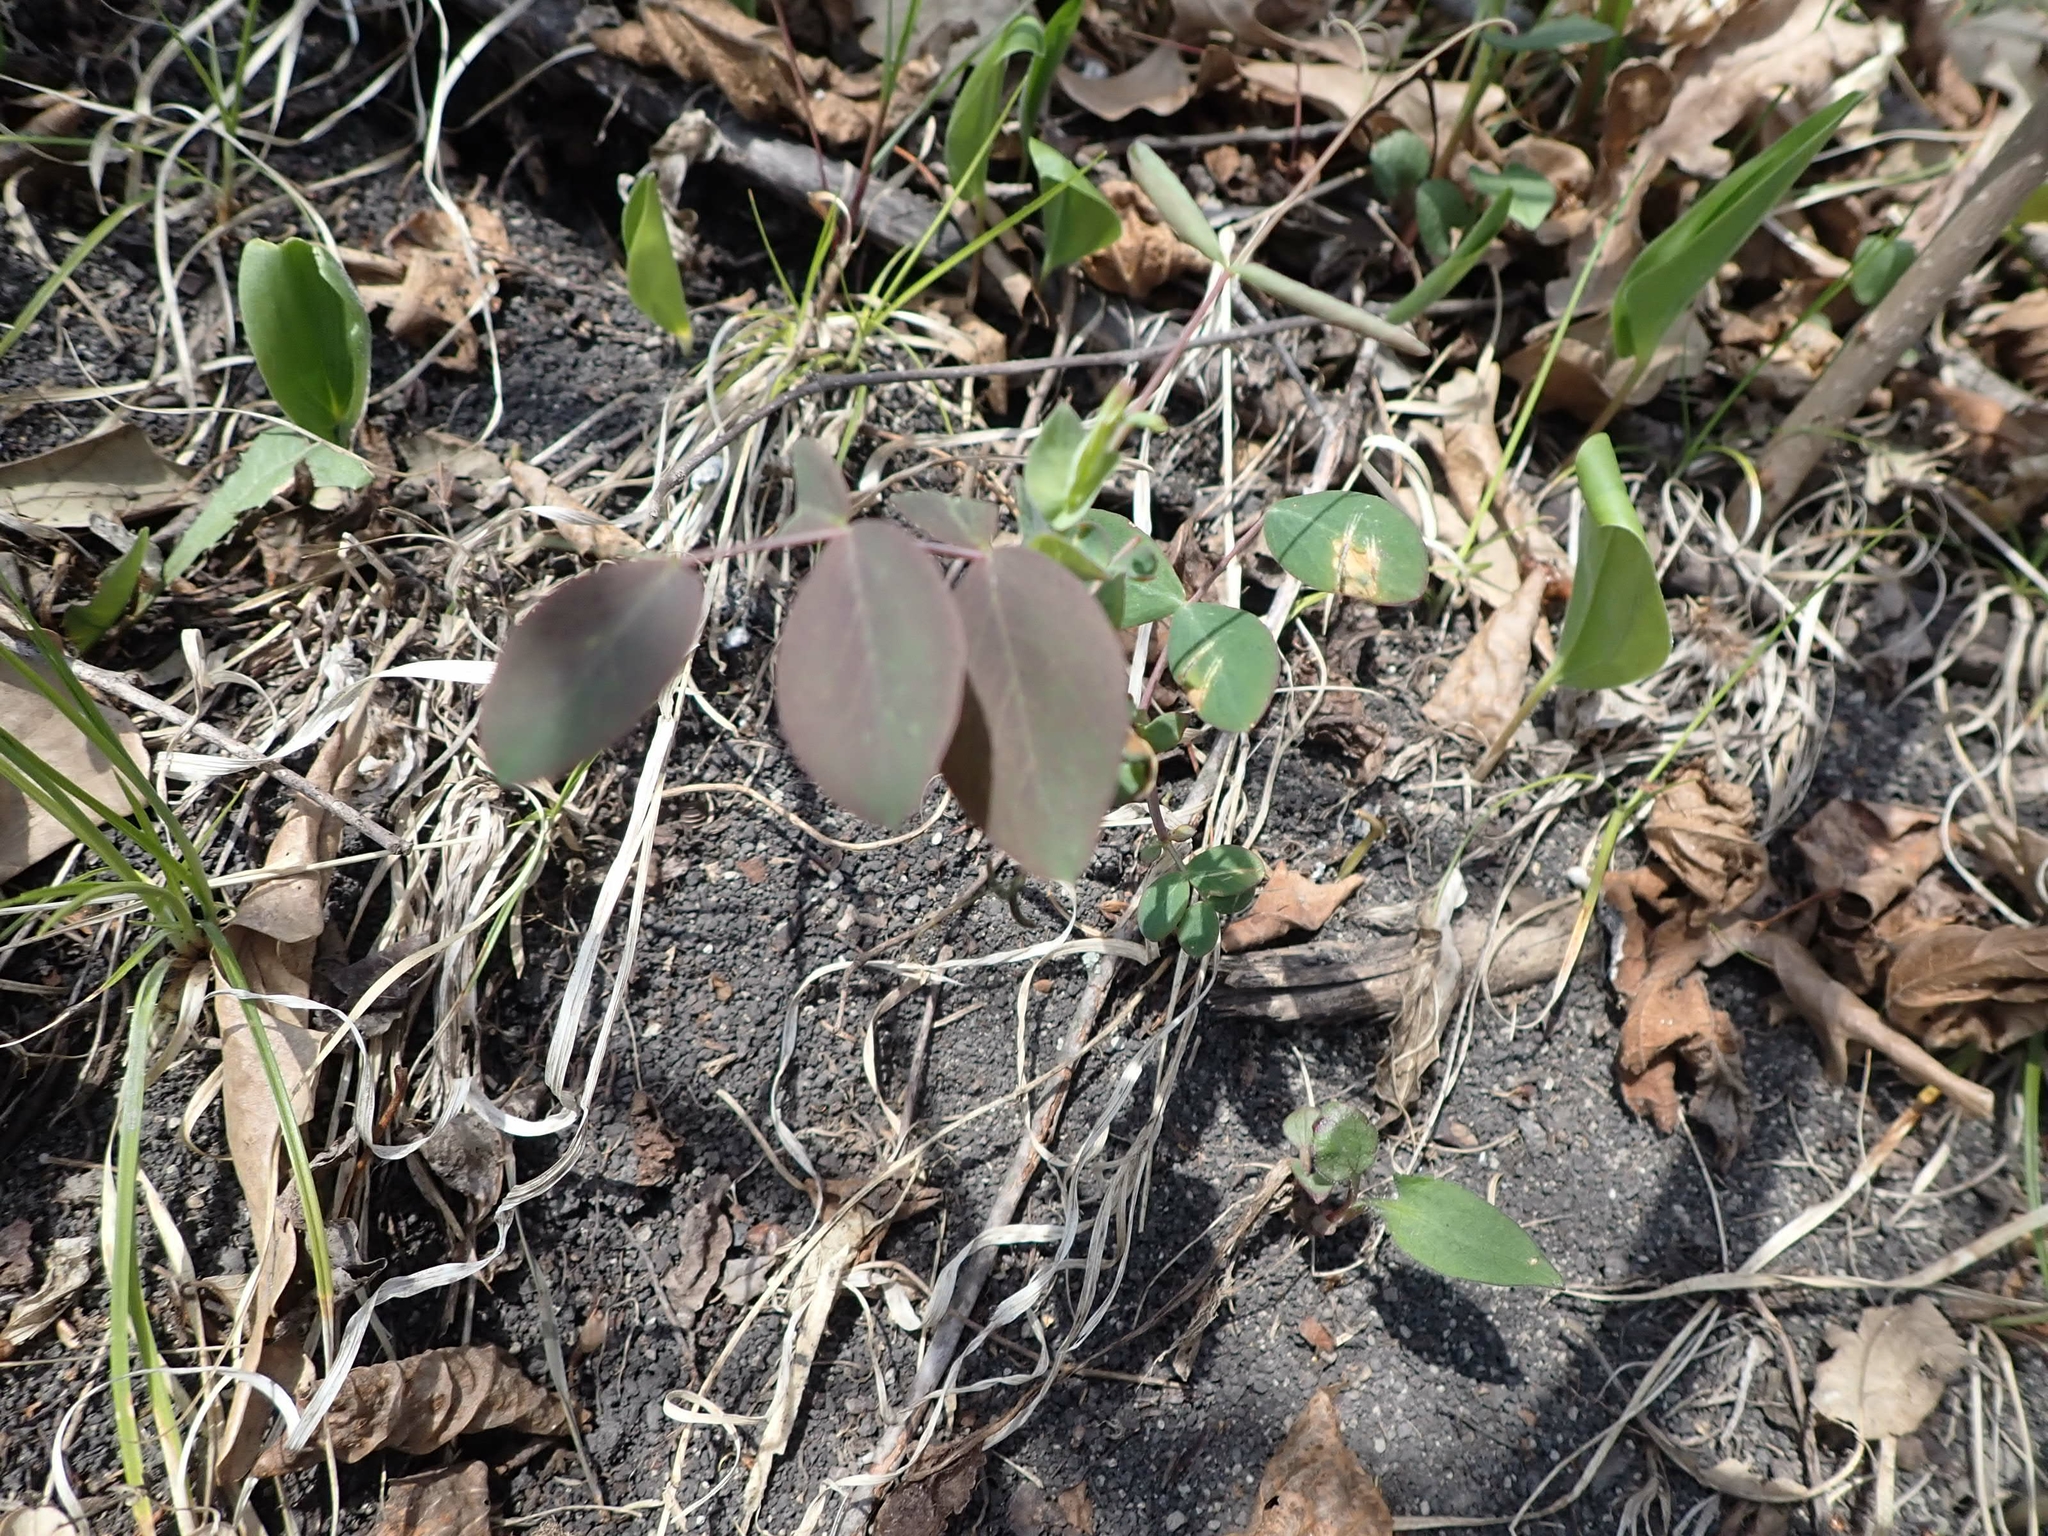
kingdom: Plantae
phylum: Tracheophyta
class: Magnoliopsida
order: Fabales
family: Fabaceae
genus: Lathyrus
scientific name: Lathyrus ochroleucus
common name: Pale vetchling
